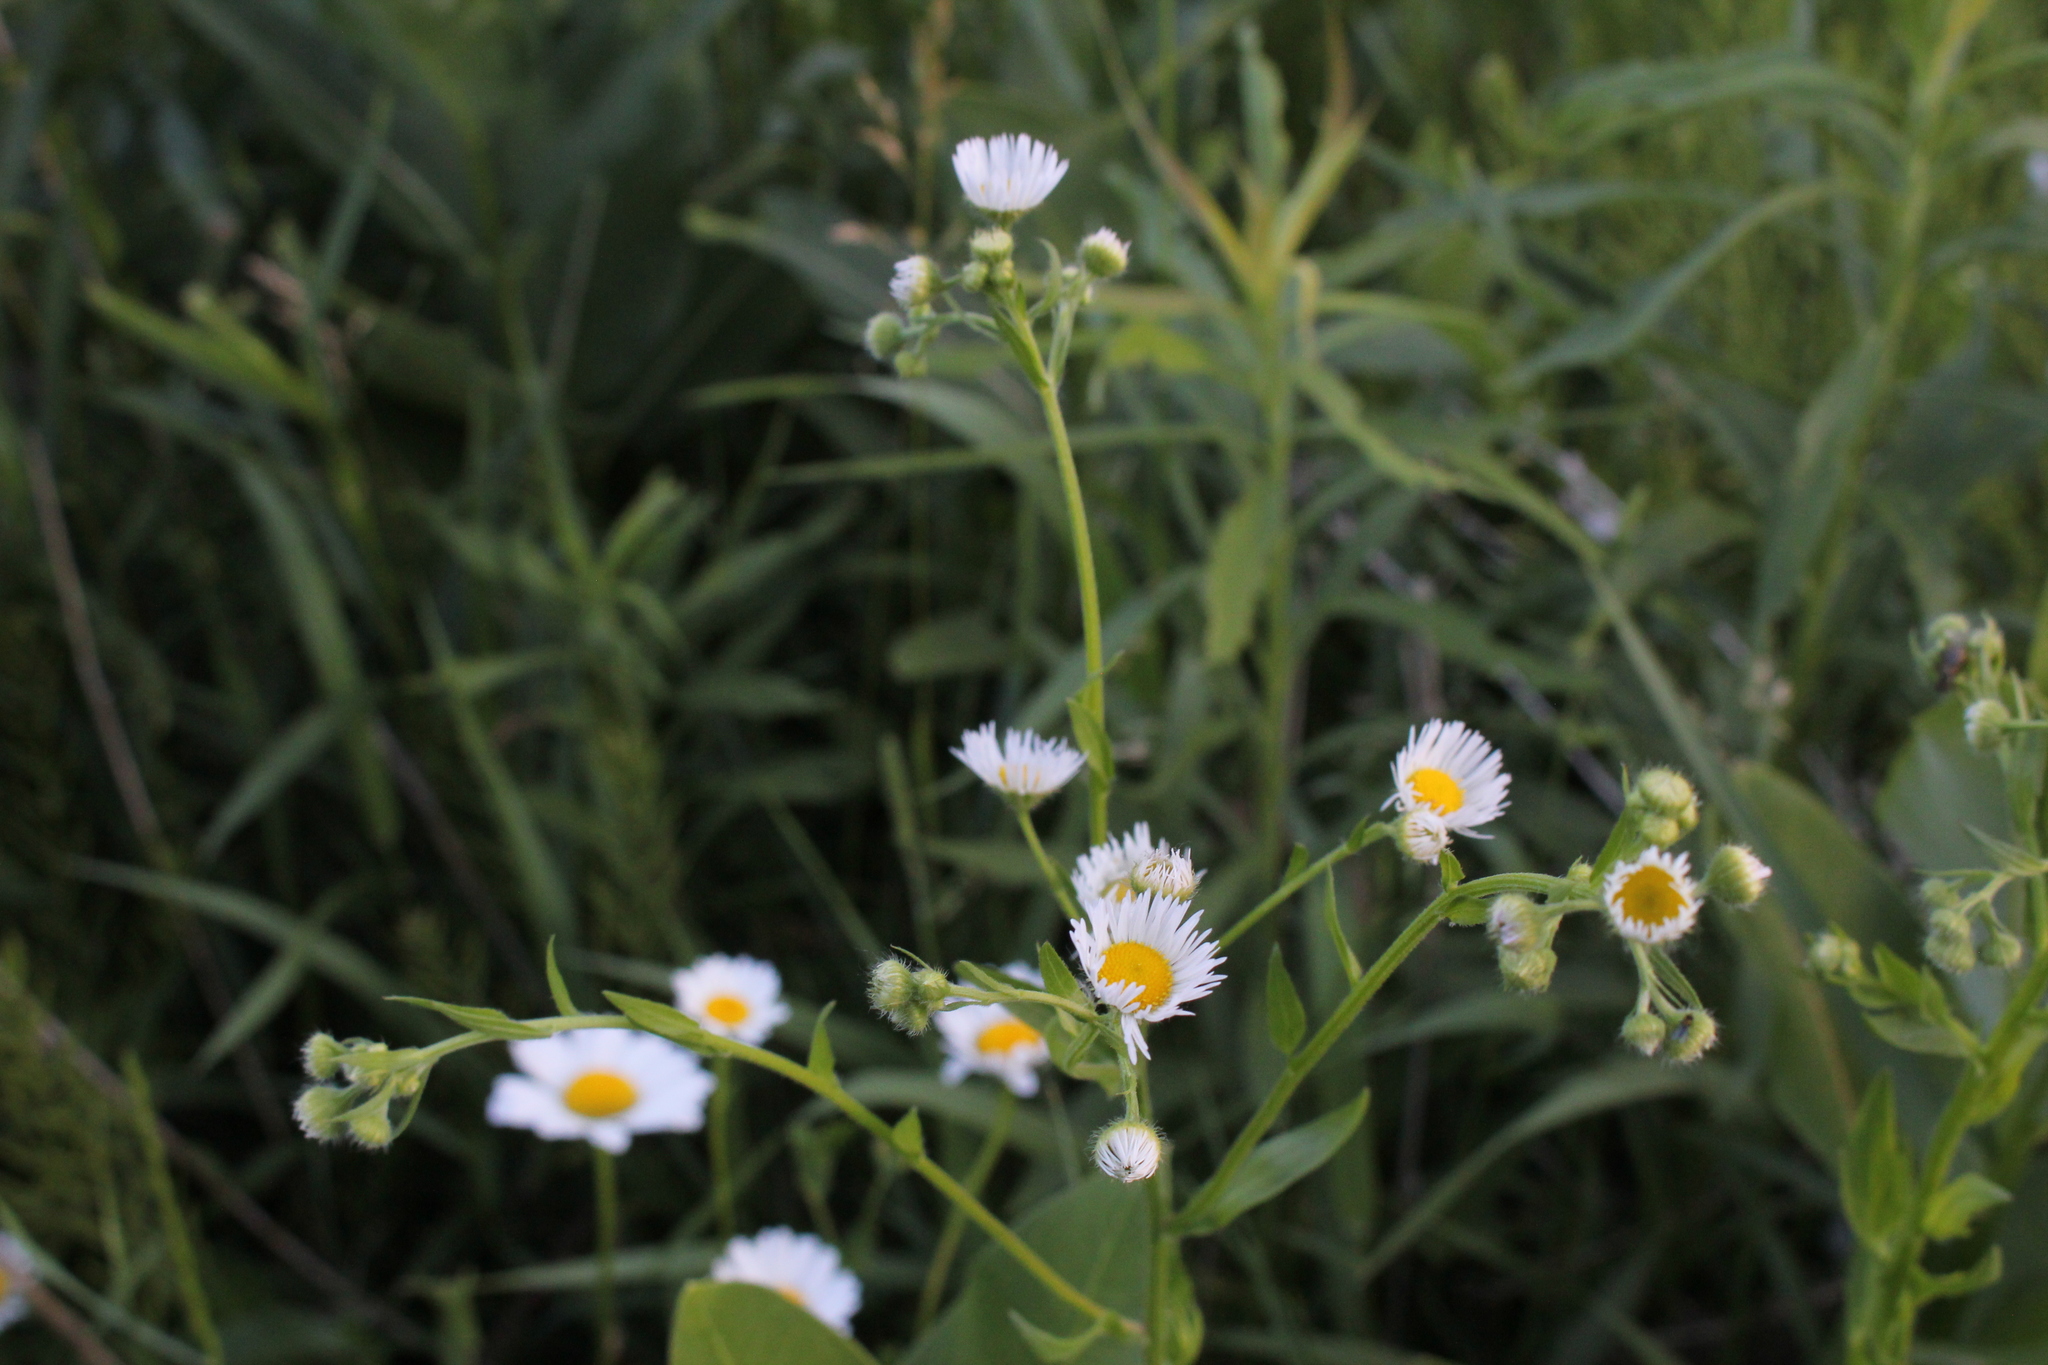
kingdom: Plantae
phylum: Tracheophyta
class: Magnoliopsida
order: Asterales
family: Asteraceae
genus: Erigeron
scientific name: Erigeron annuus
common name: Tall fleabane
